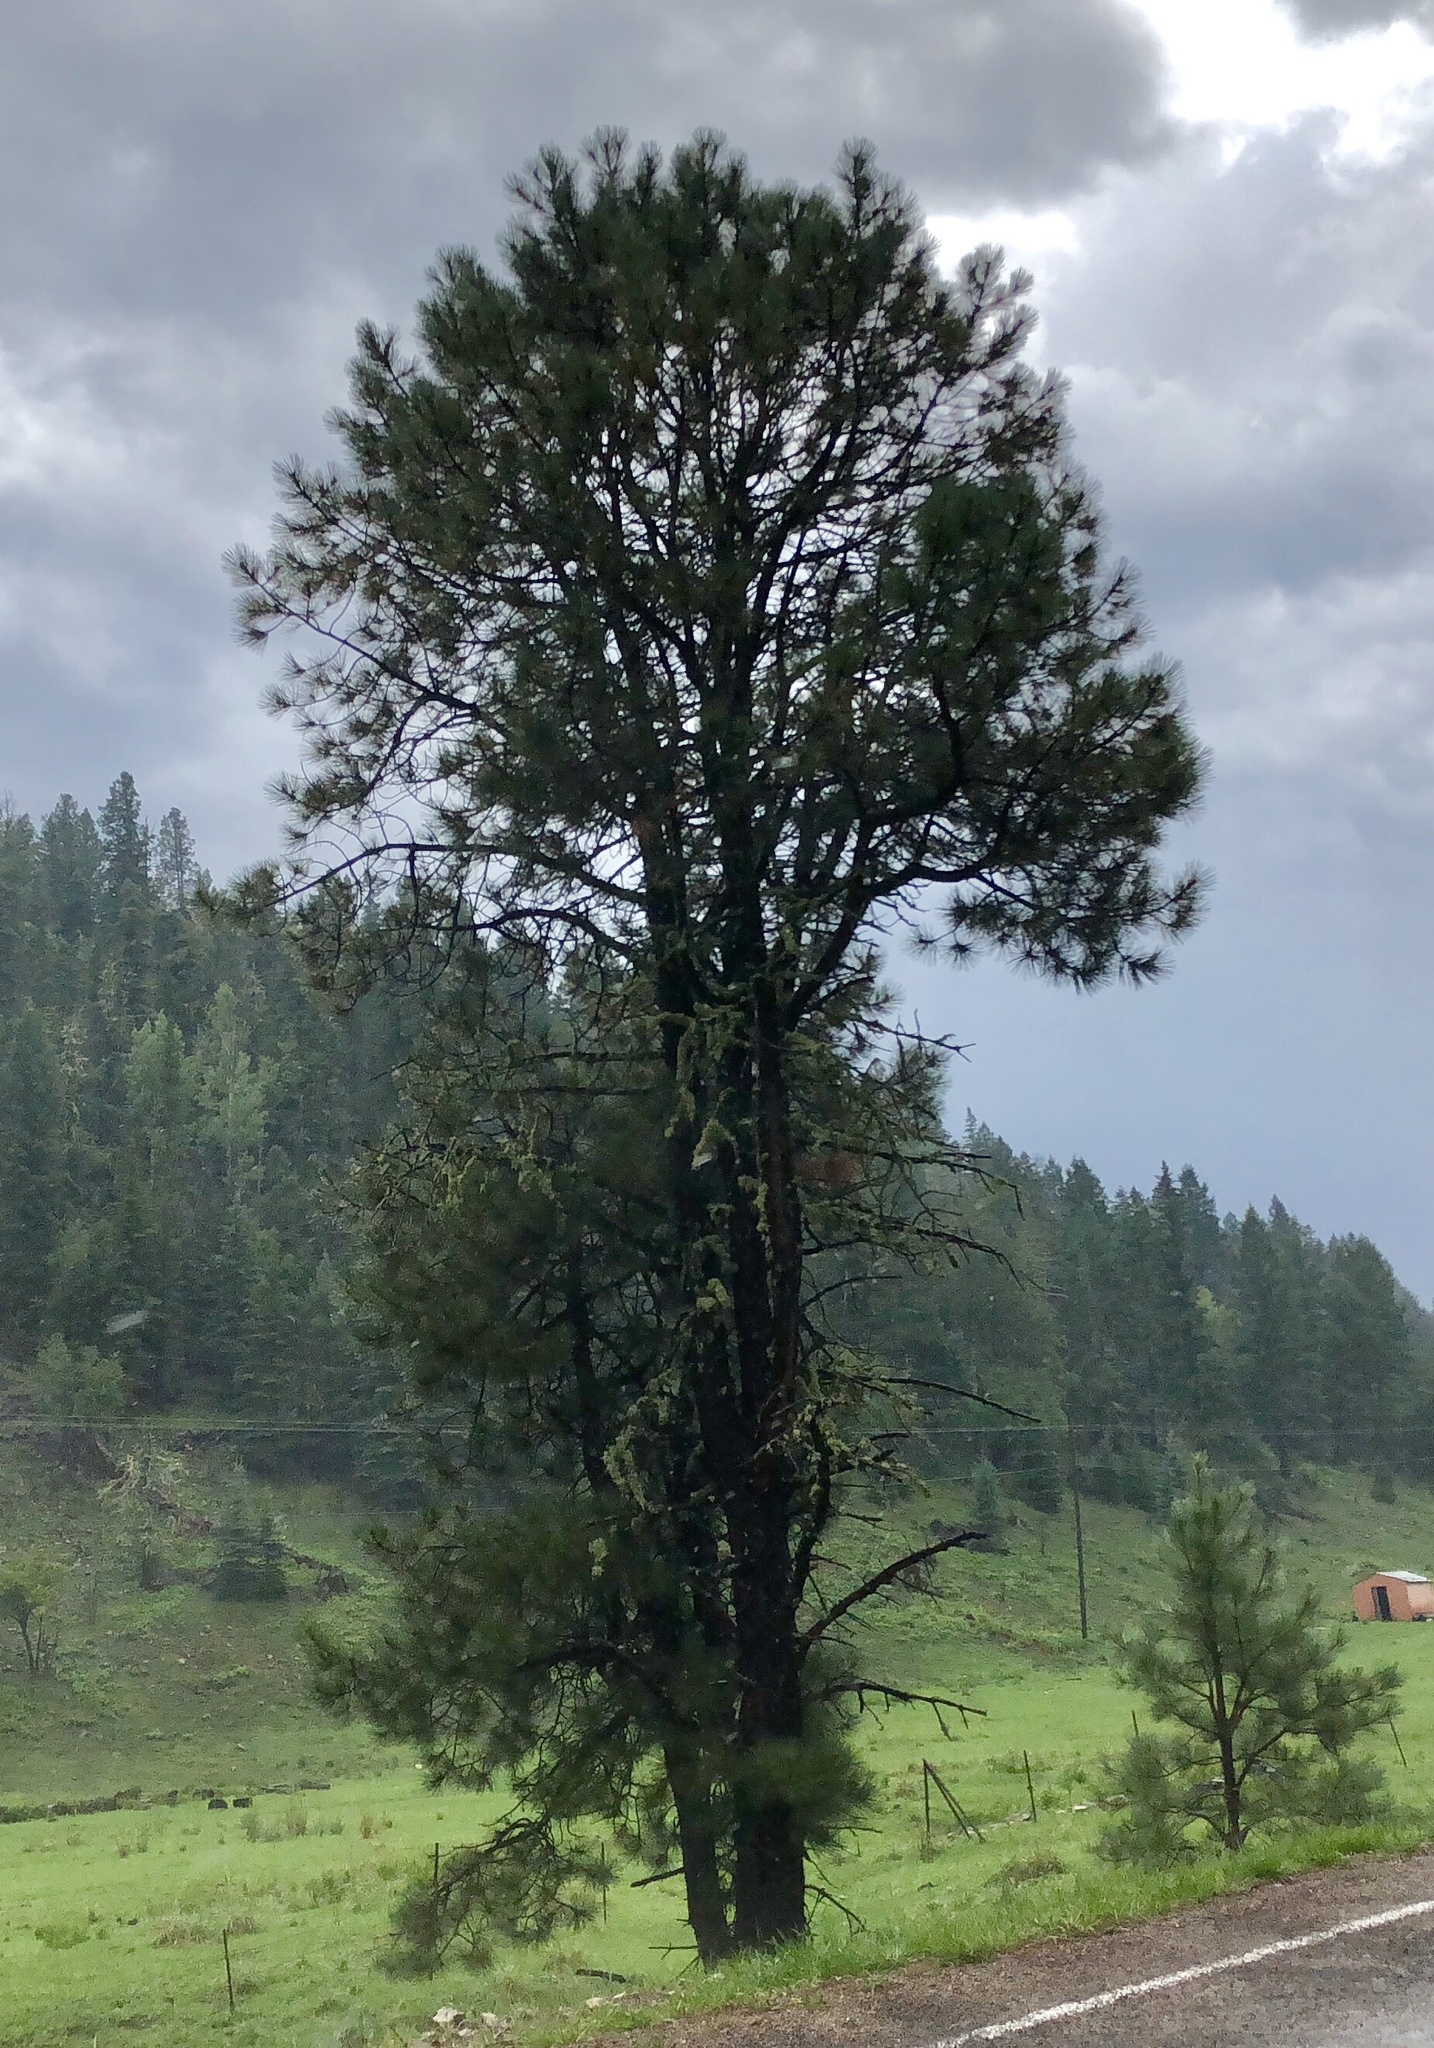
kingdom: Plantae
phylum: Tracheophyta
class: Pinopsida
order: Pinales
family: Pinaceae
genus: Pinus
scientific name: Pinus ponderosa
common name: Western yellow-pine
